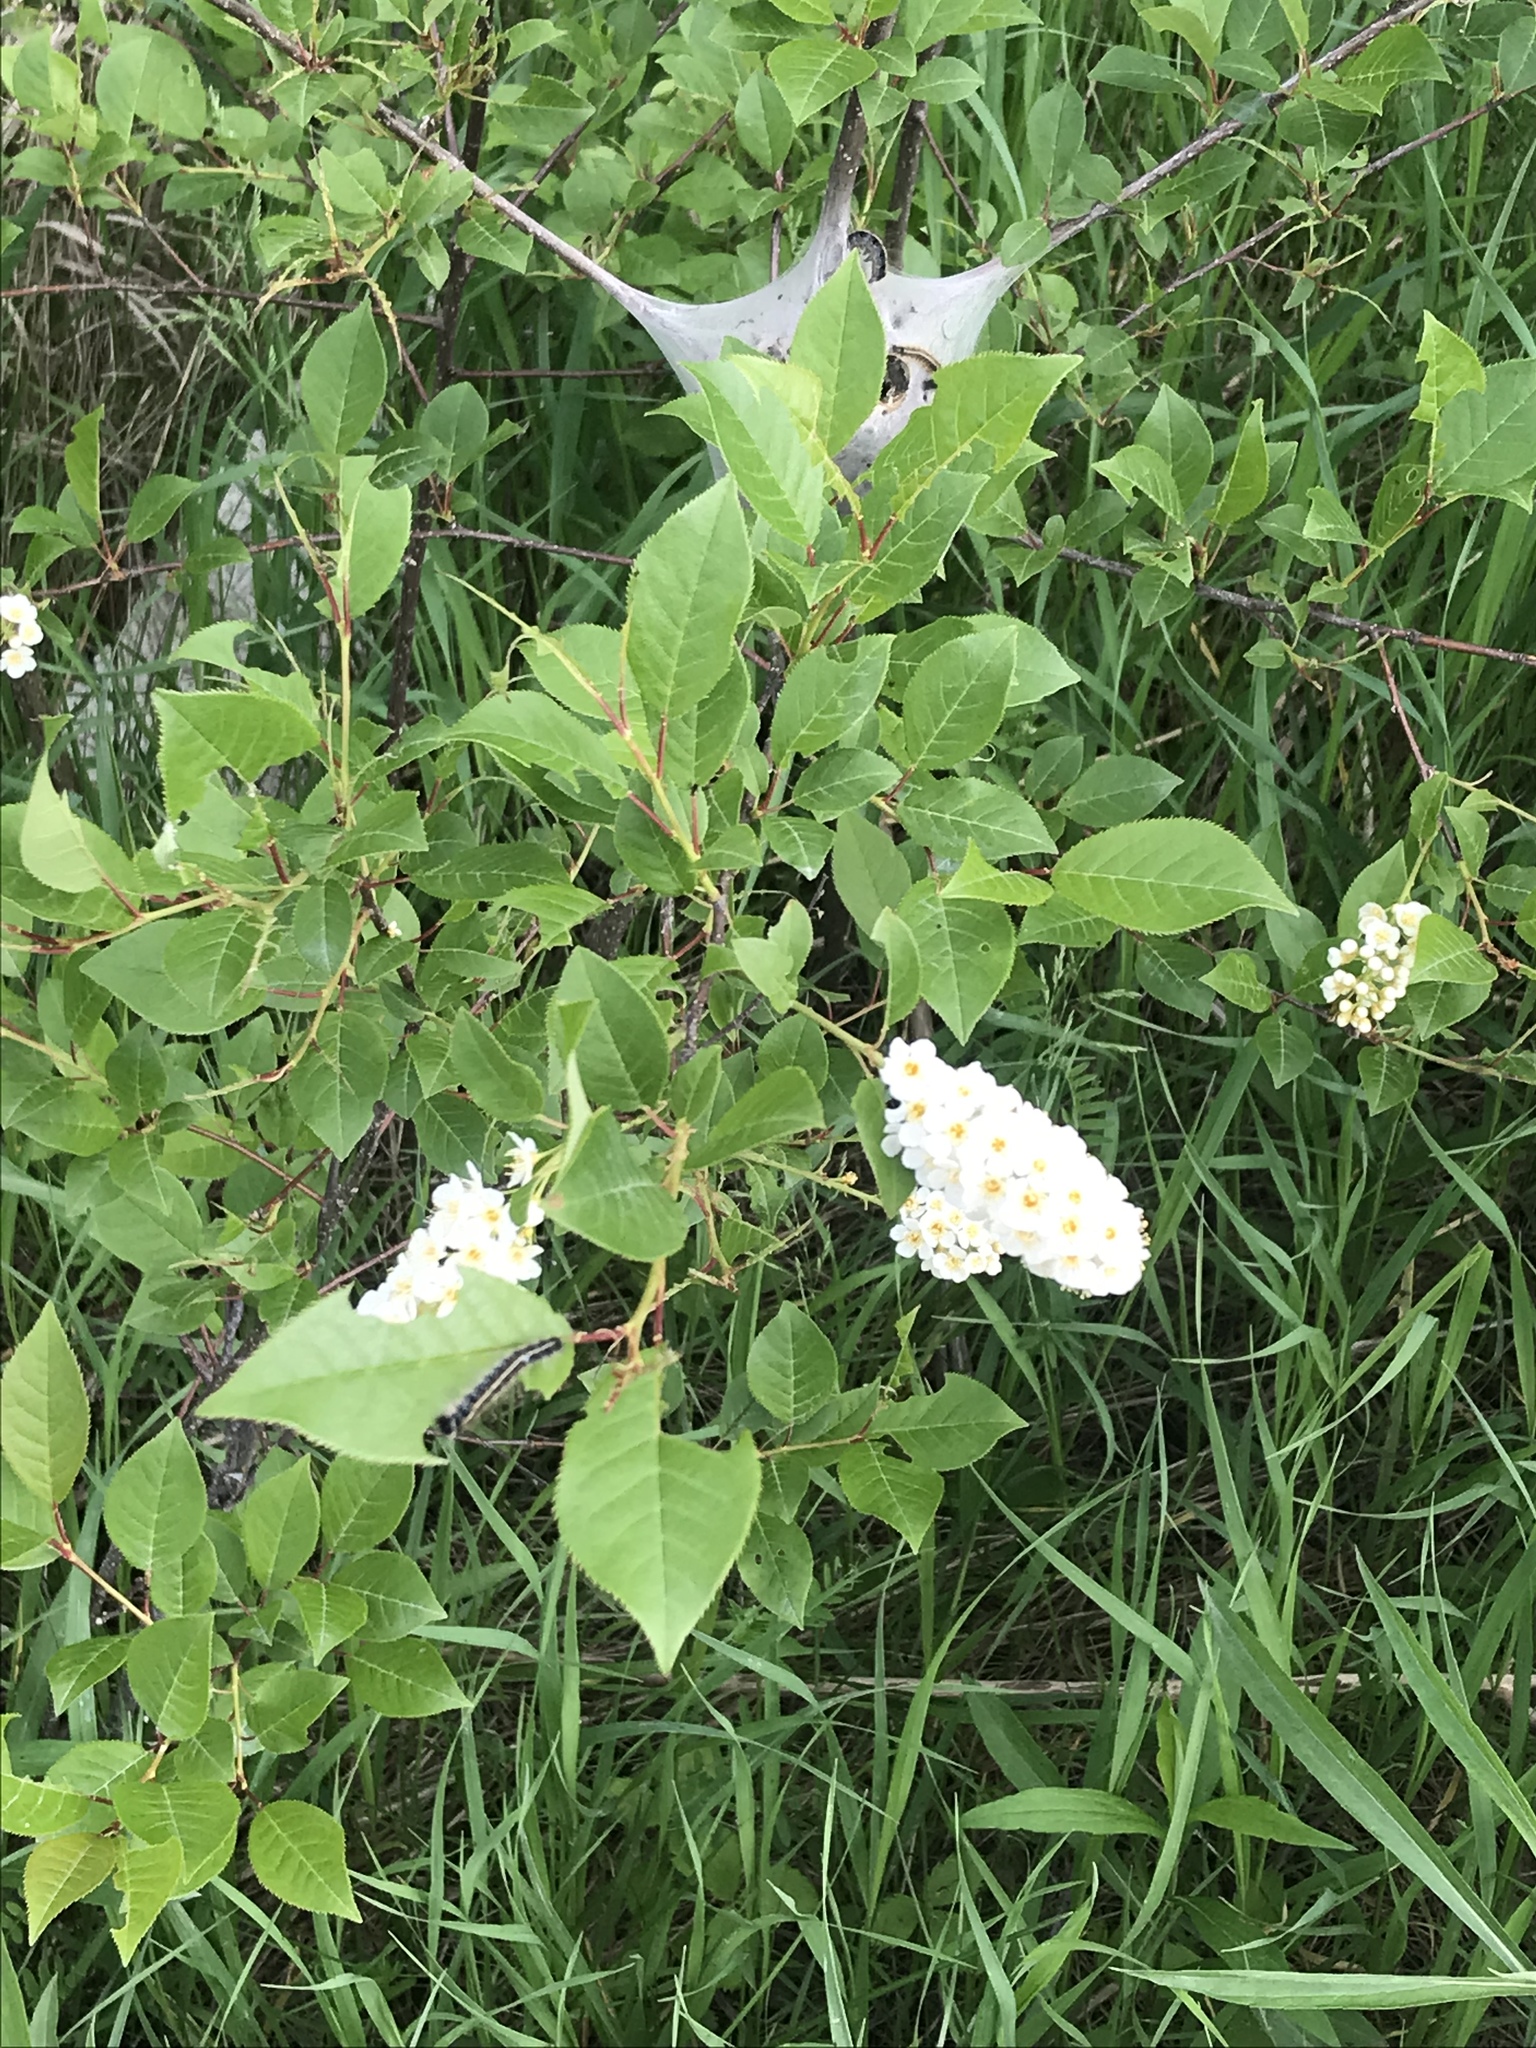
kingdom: Plantae
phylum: Tracheophyta
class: Magnoliopsida
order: Rosales
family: Rosaceae
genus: Prunus
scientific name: Prunus virginiana
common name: Chokecherry
